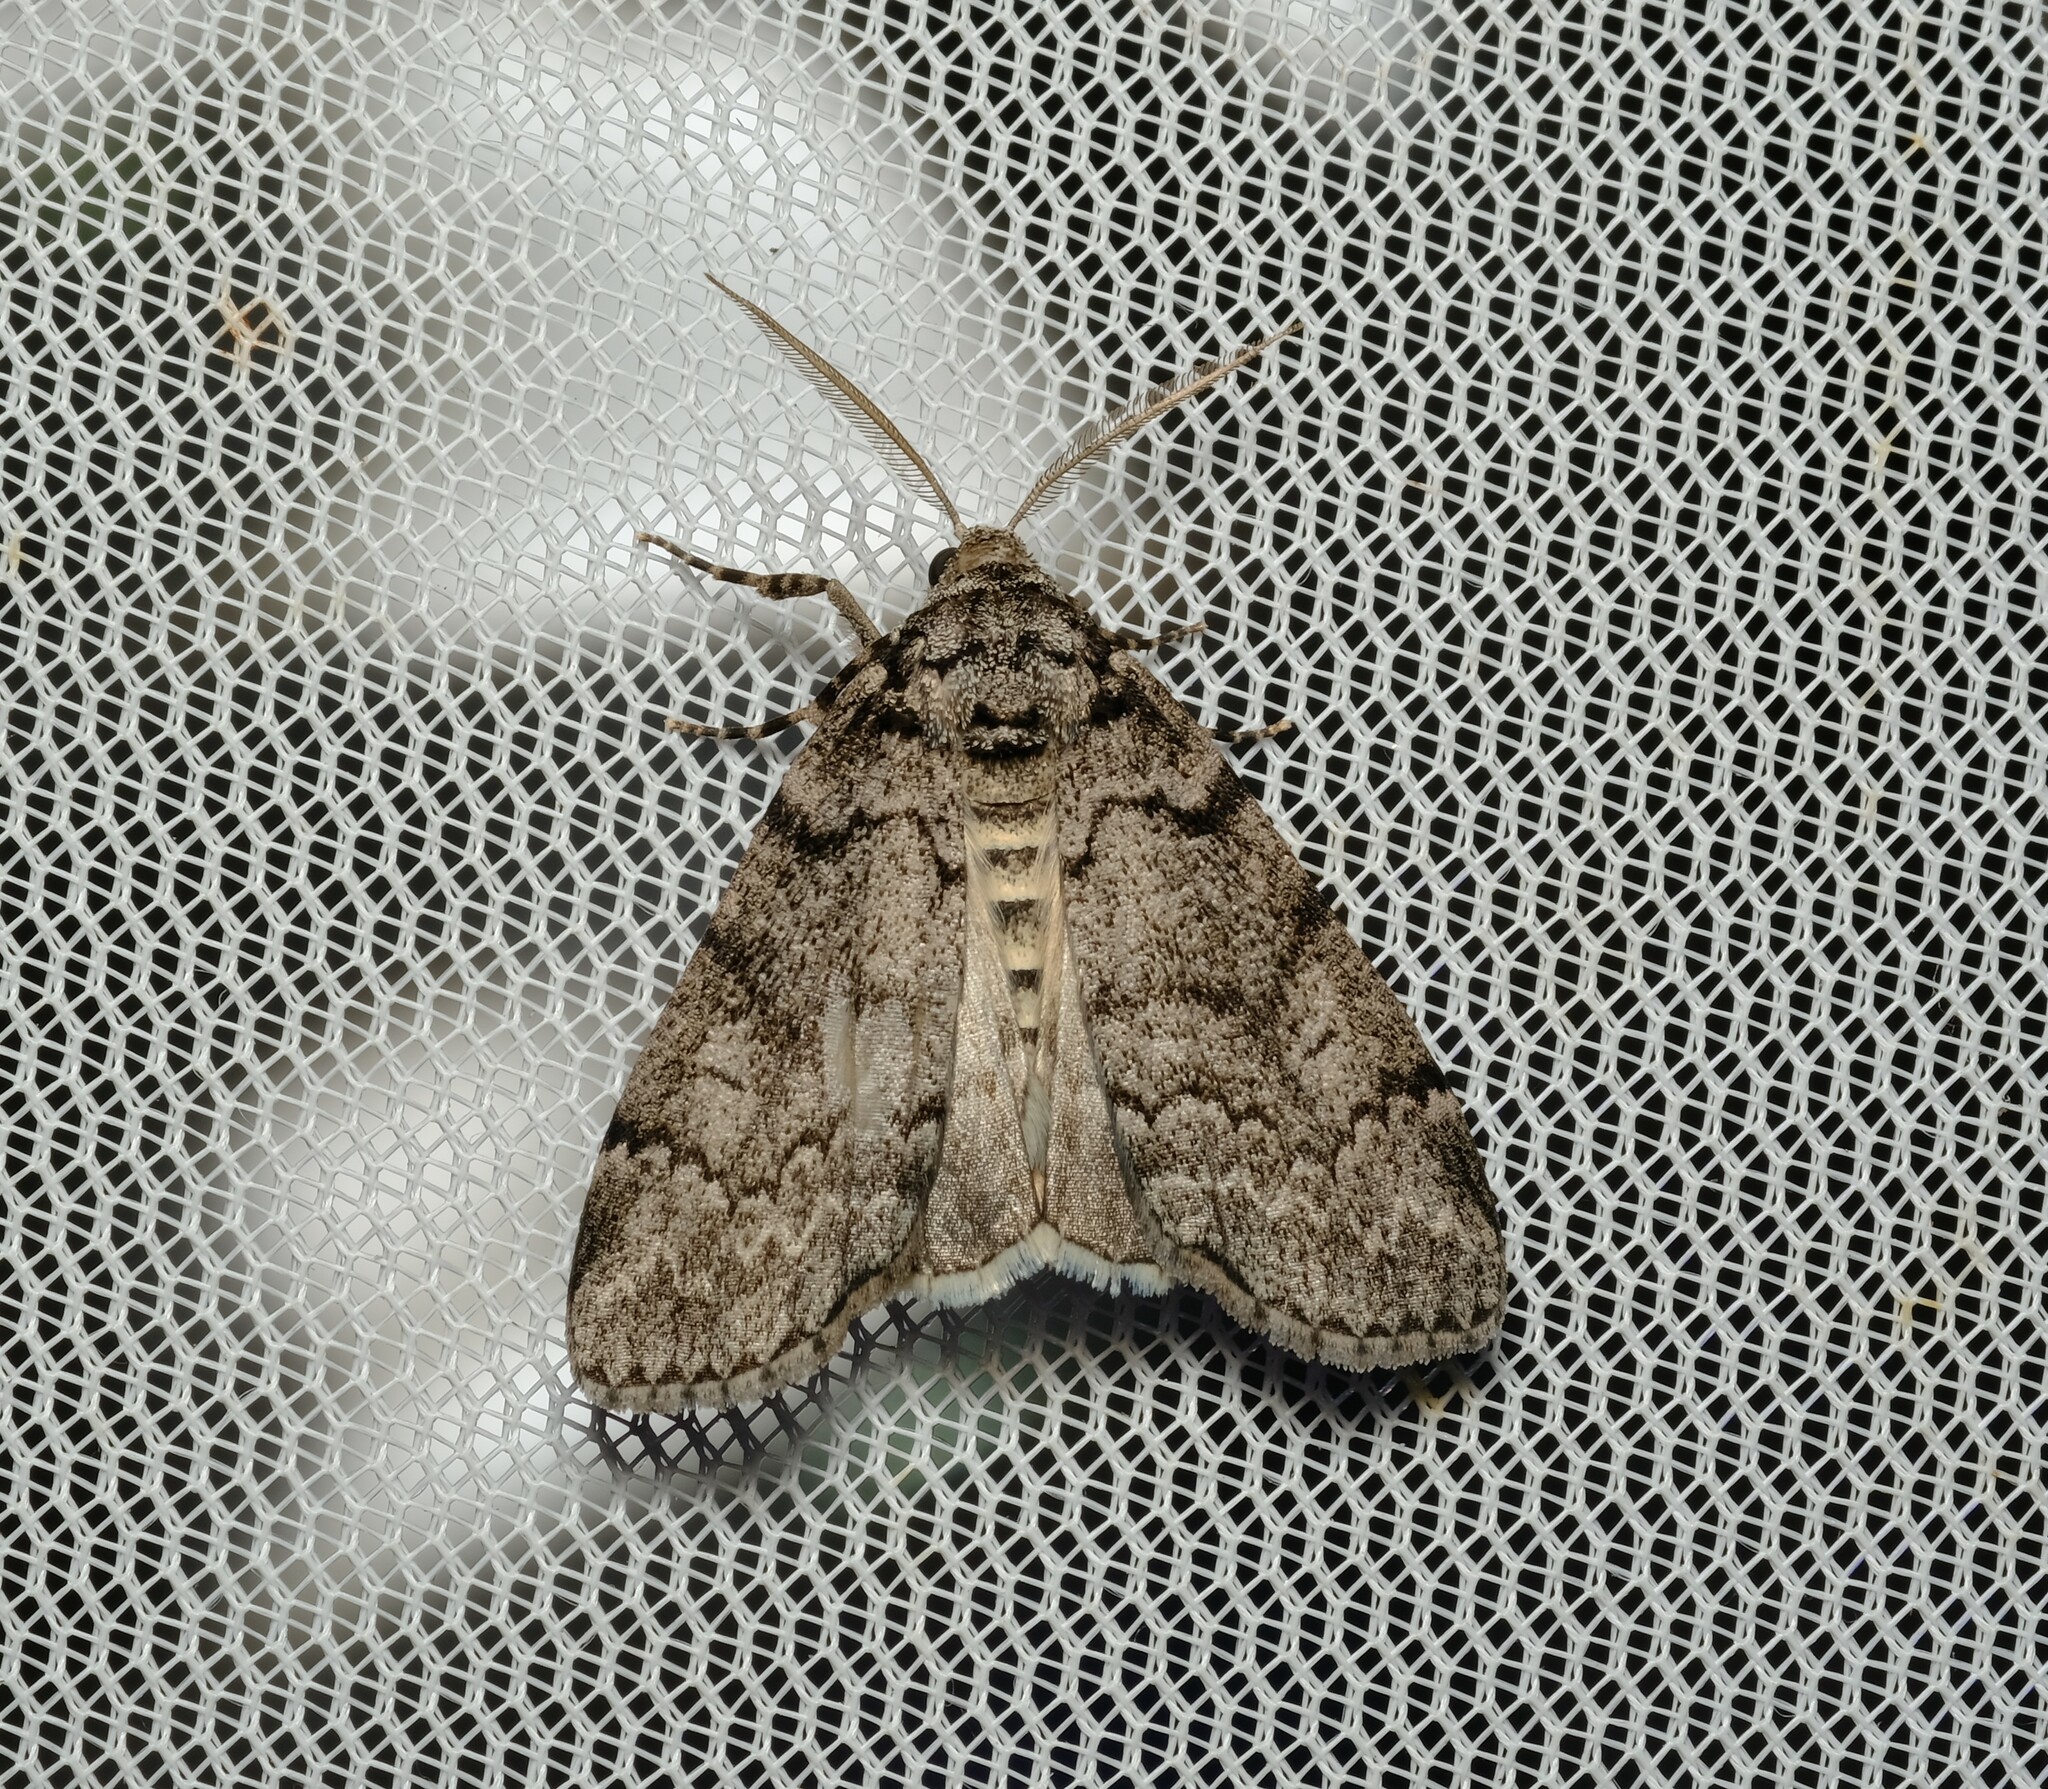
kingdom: Animalia
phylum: Arthropoda
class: Insecta
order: Lepidoptera
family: Geometridae
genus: Smyriodes
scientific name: Smyriodes trigramma
